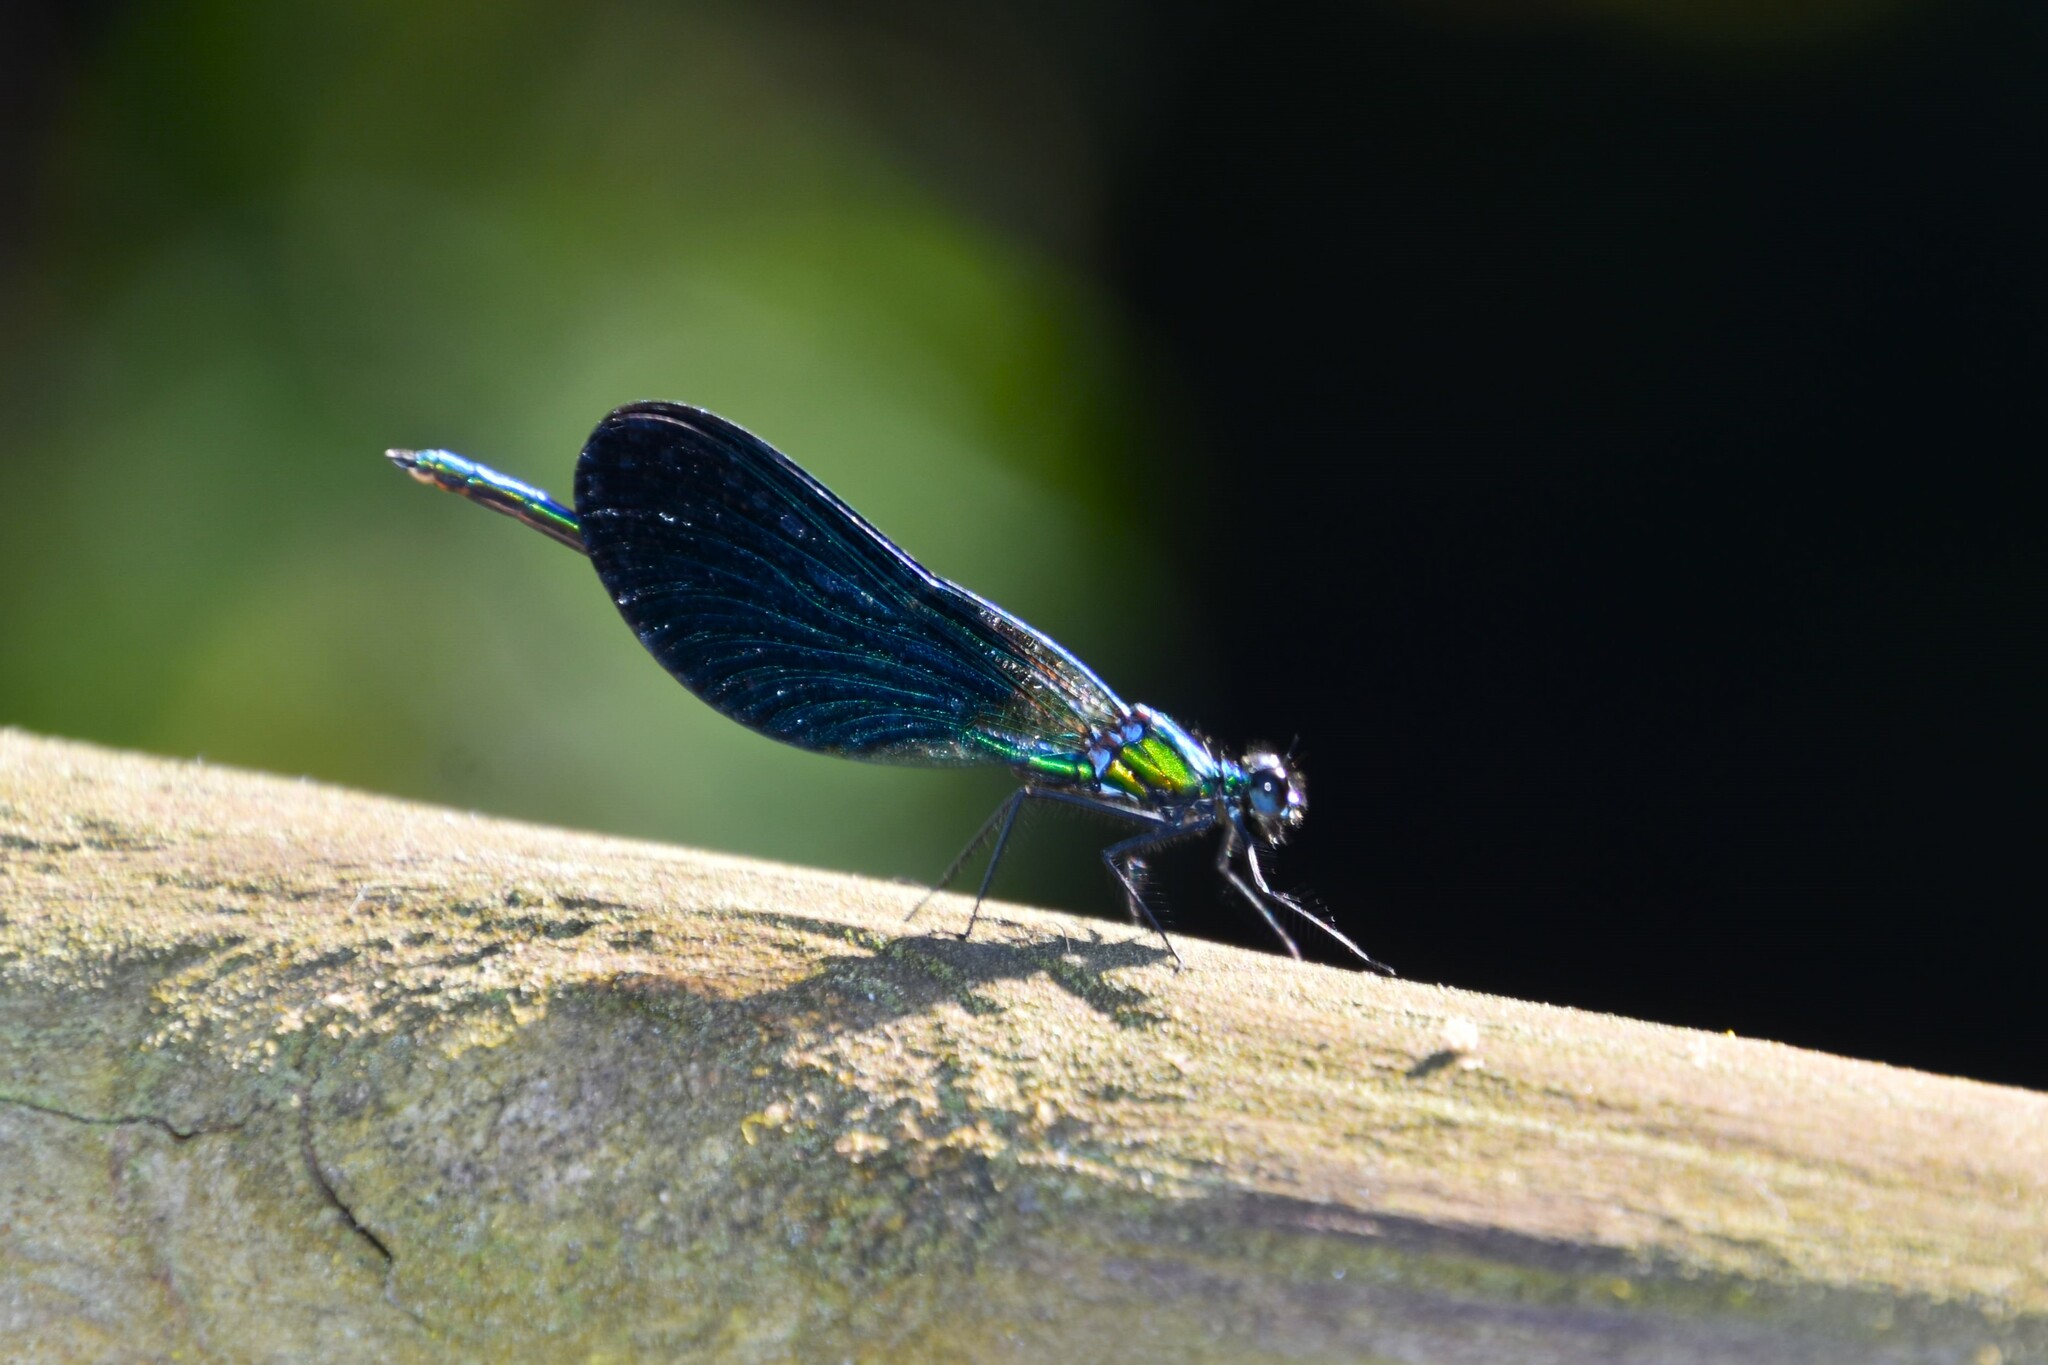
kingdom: Animalia
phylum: Arthropoda
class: Insecta
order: Odonata
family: Calopterygidae
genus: Calopteryx
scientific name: Calopteryx virgo
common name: Beautiful demoiselle
